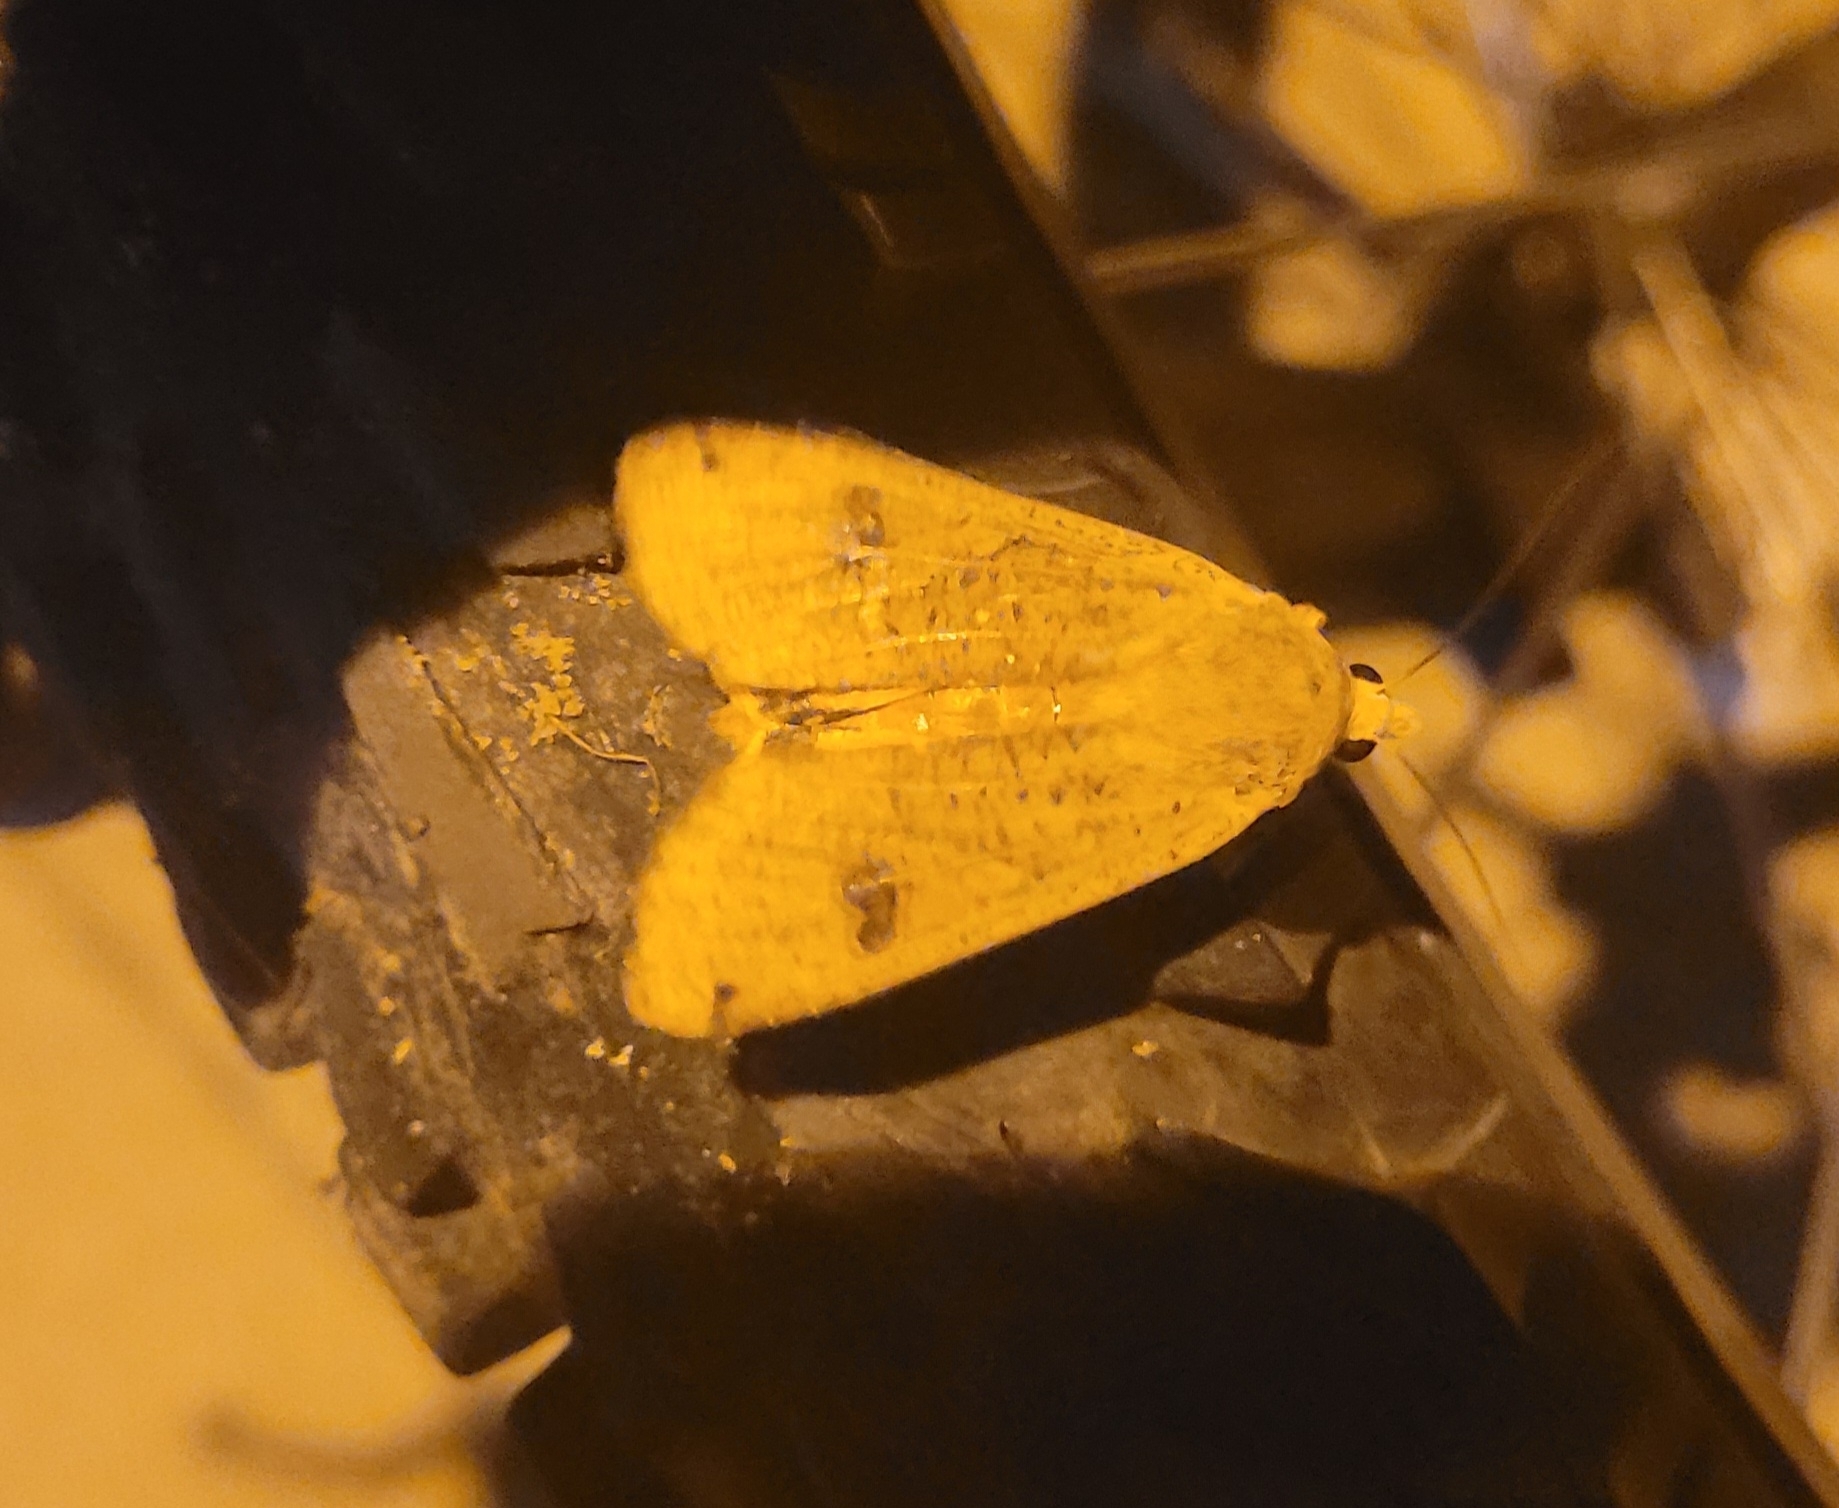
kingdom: Animalia
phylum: Arthropoda
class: Insecta
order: Lepidoptera
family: Noctuidae
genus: Noctua
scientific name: Noctua pronuba
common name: Large yellow underwing
